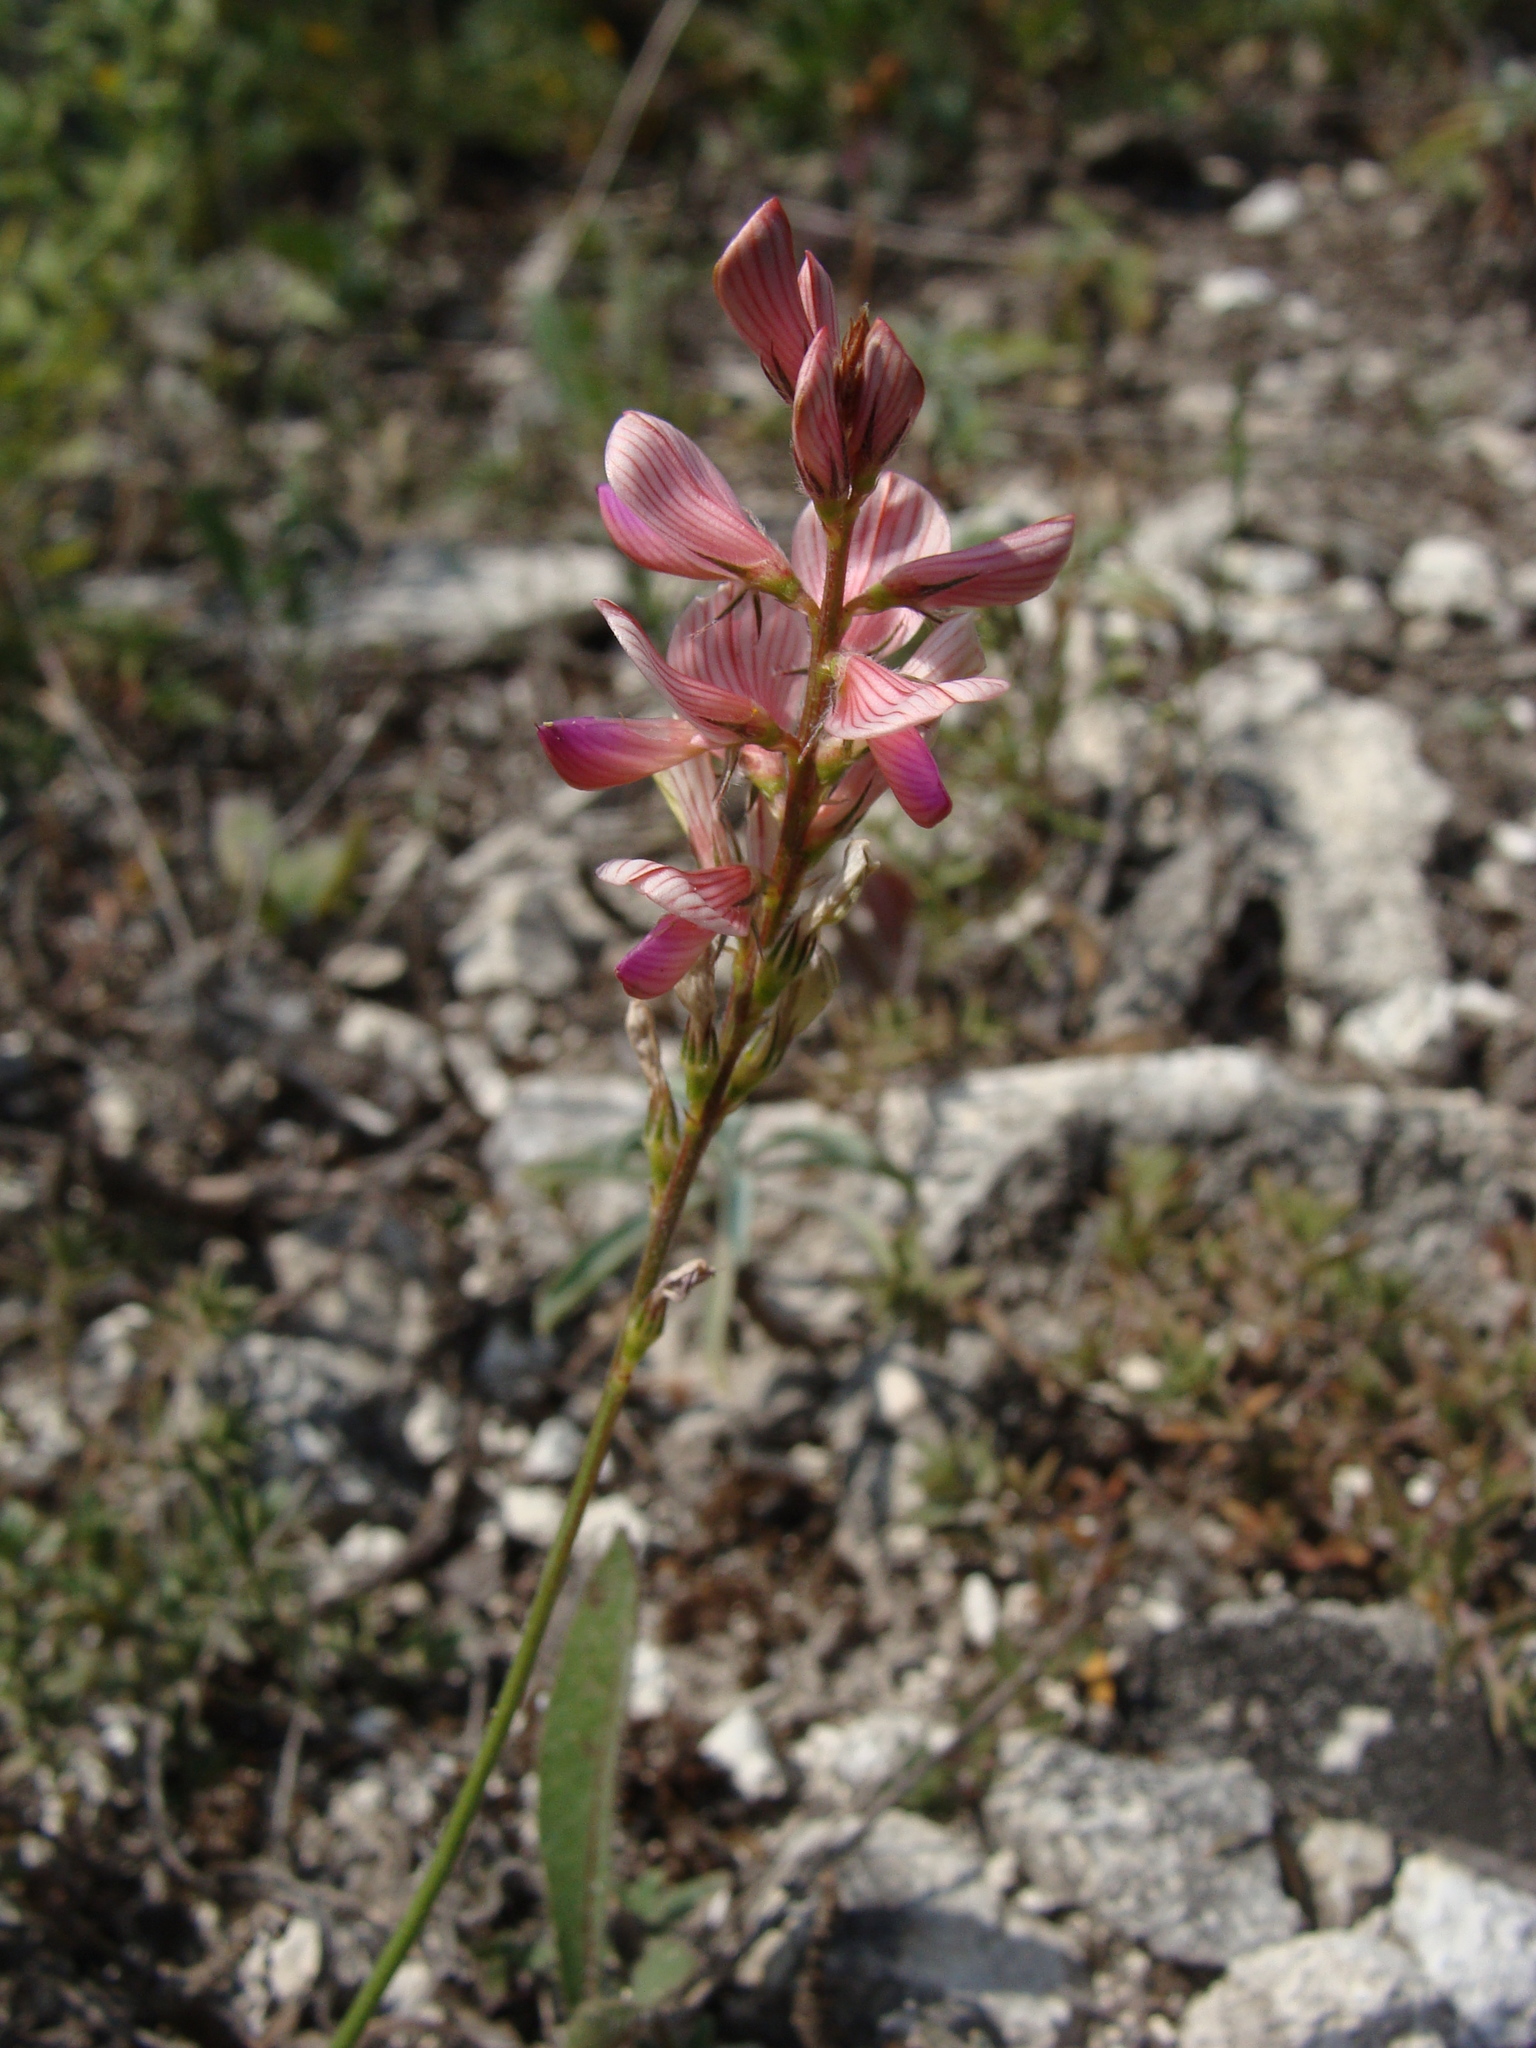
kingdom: Plantae
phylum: Tracheophyta
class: Magnoliopsida
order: Fabales
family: Fabaceae
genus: Onobrychis
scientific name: Onobrychis arenaria
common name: Sand esparcet
